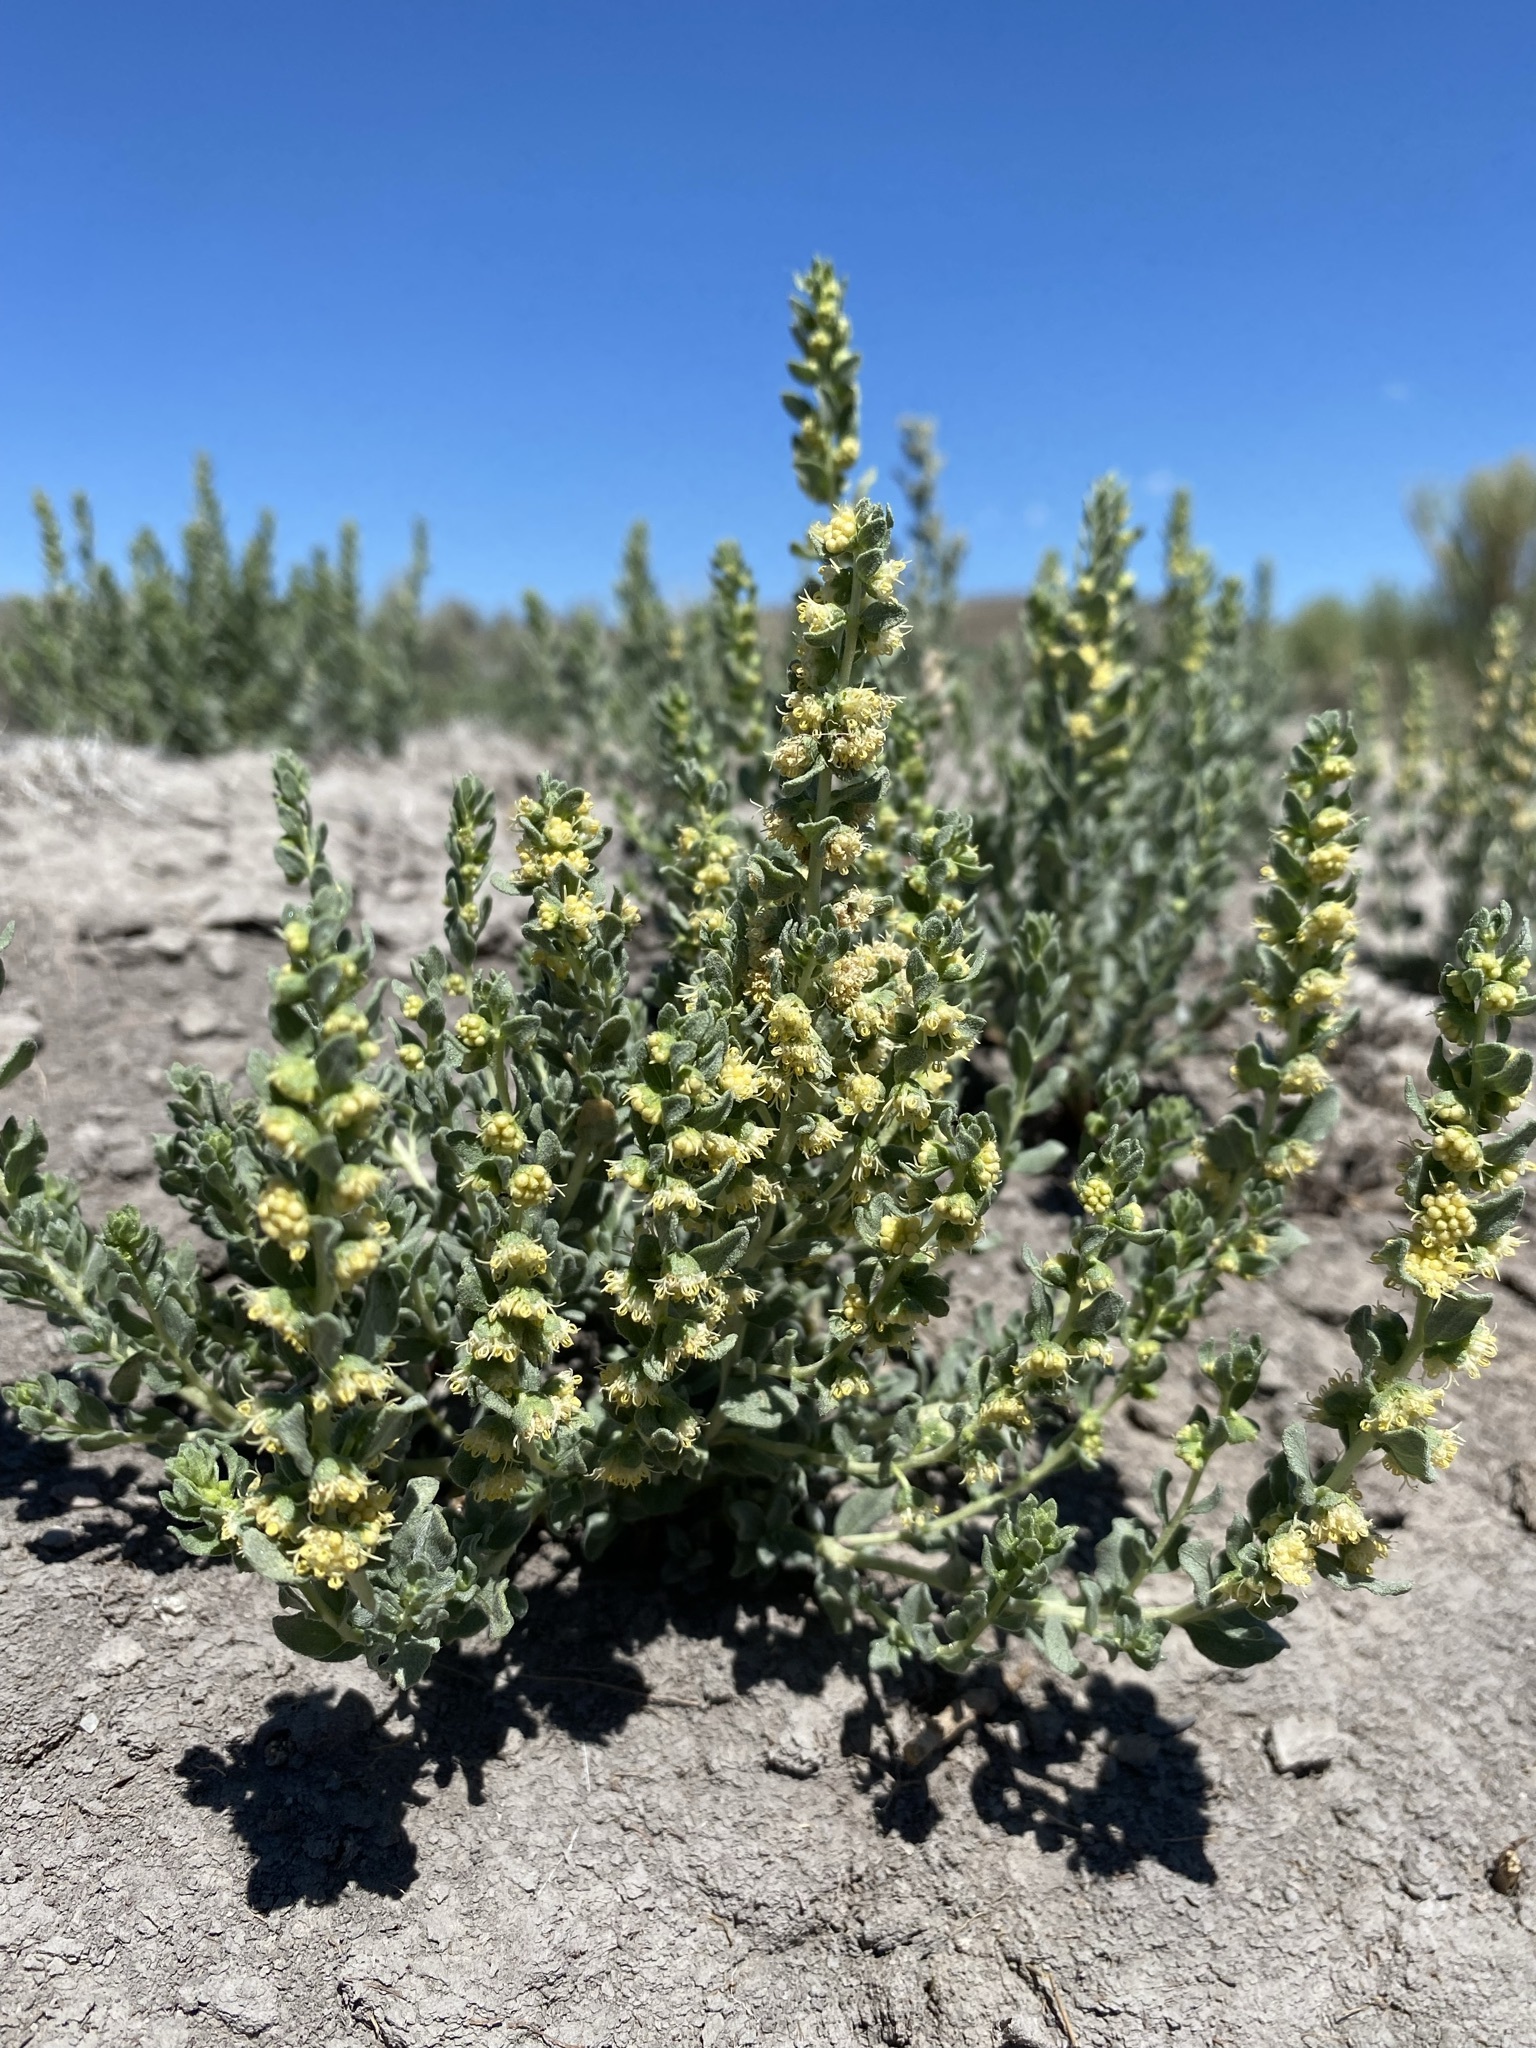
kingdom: Plantae
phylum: Tracheophyta
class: Magnoliopsida
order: Asterales
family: Asteraceae
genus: Iva
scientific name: Iva axillaris
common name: Poverty sumpweed
